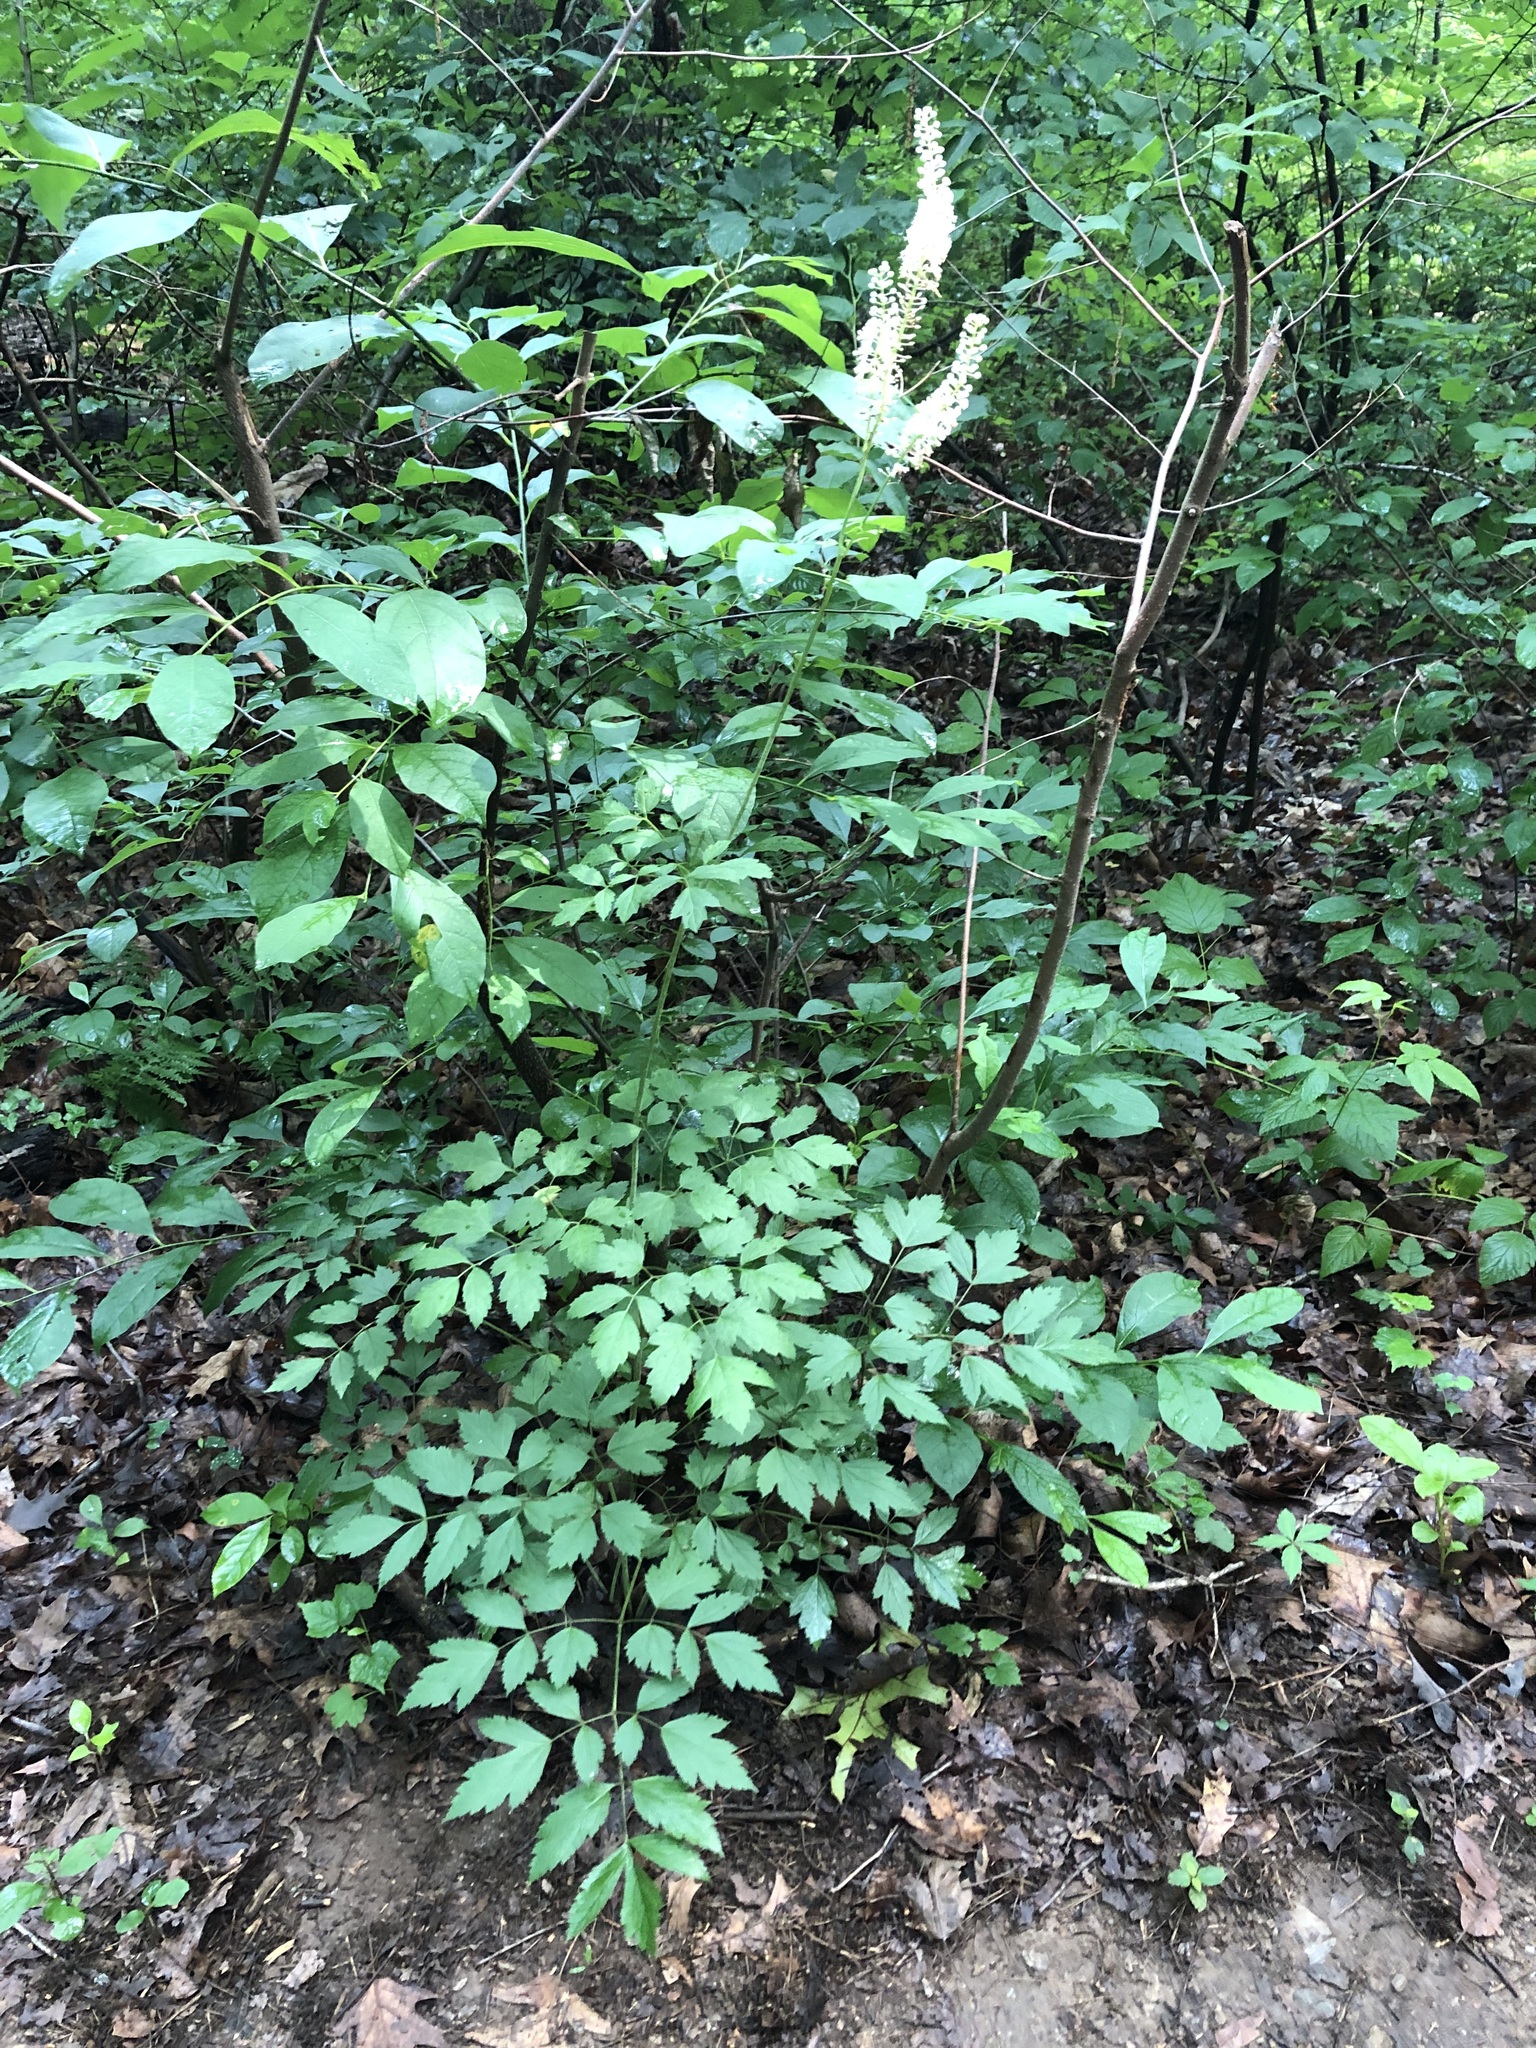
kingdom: Plantae
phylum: Tracheophyta
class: Magnoliopsida
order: Ranunculales
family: Ranunculaceae
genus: Actaea
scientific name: Actaea racemosa
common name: Black cohosh
